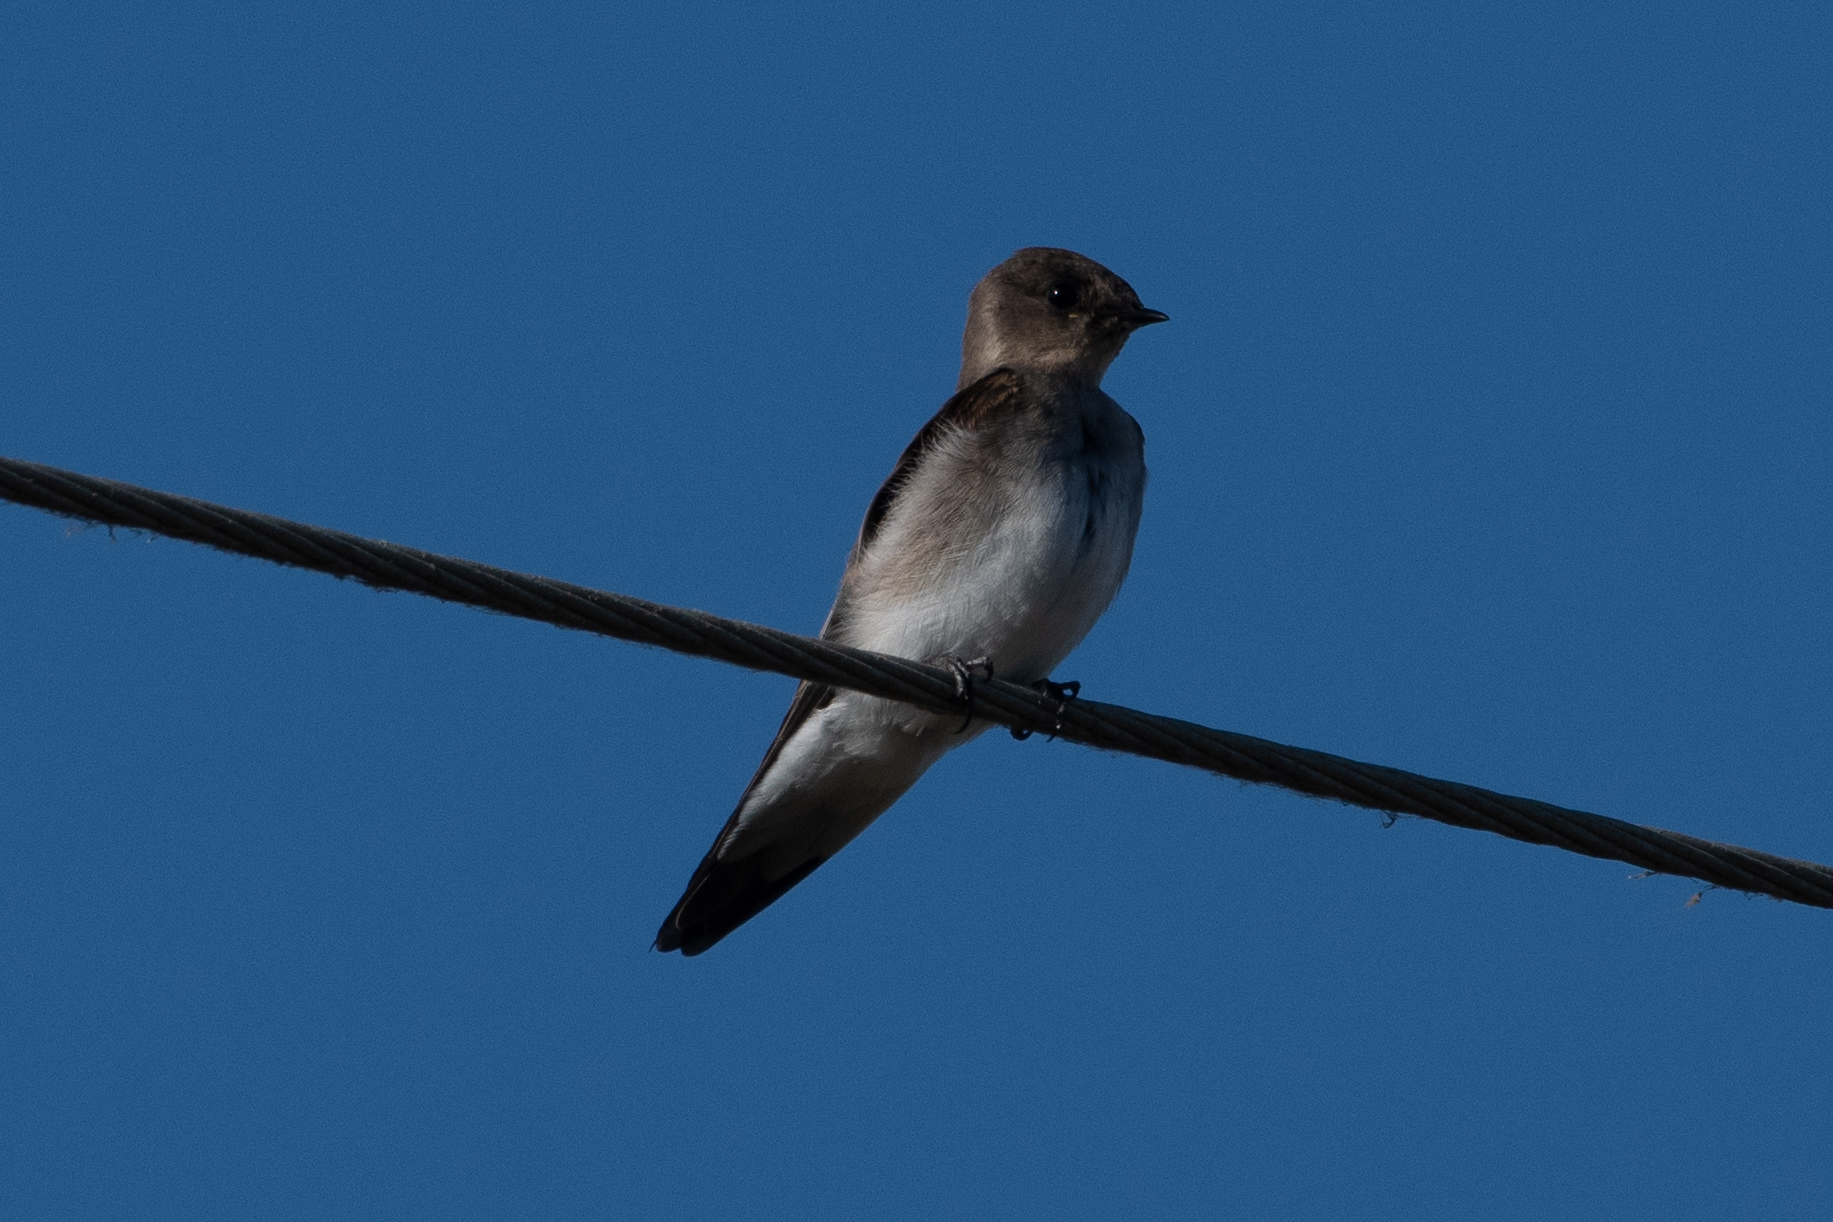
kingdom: Animalia
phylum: Chordata
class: Aves
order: Passeriformes
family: Hirundinidae
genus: Stelgidopteryx
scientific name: Stelgidopteryx serripennis
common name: Northern rough-winged swallow
